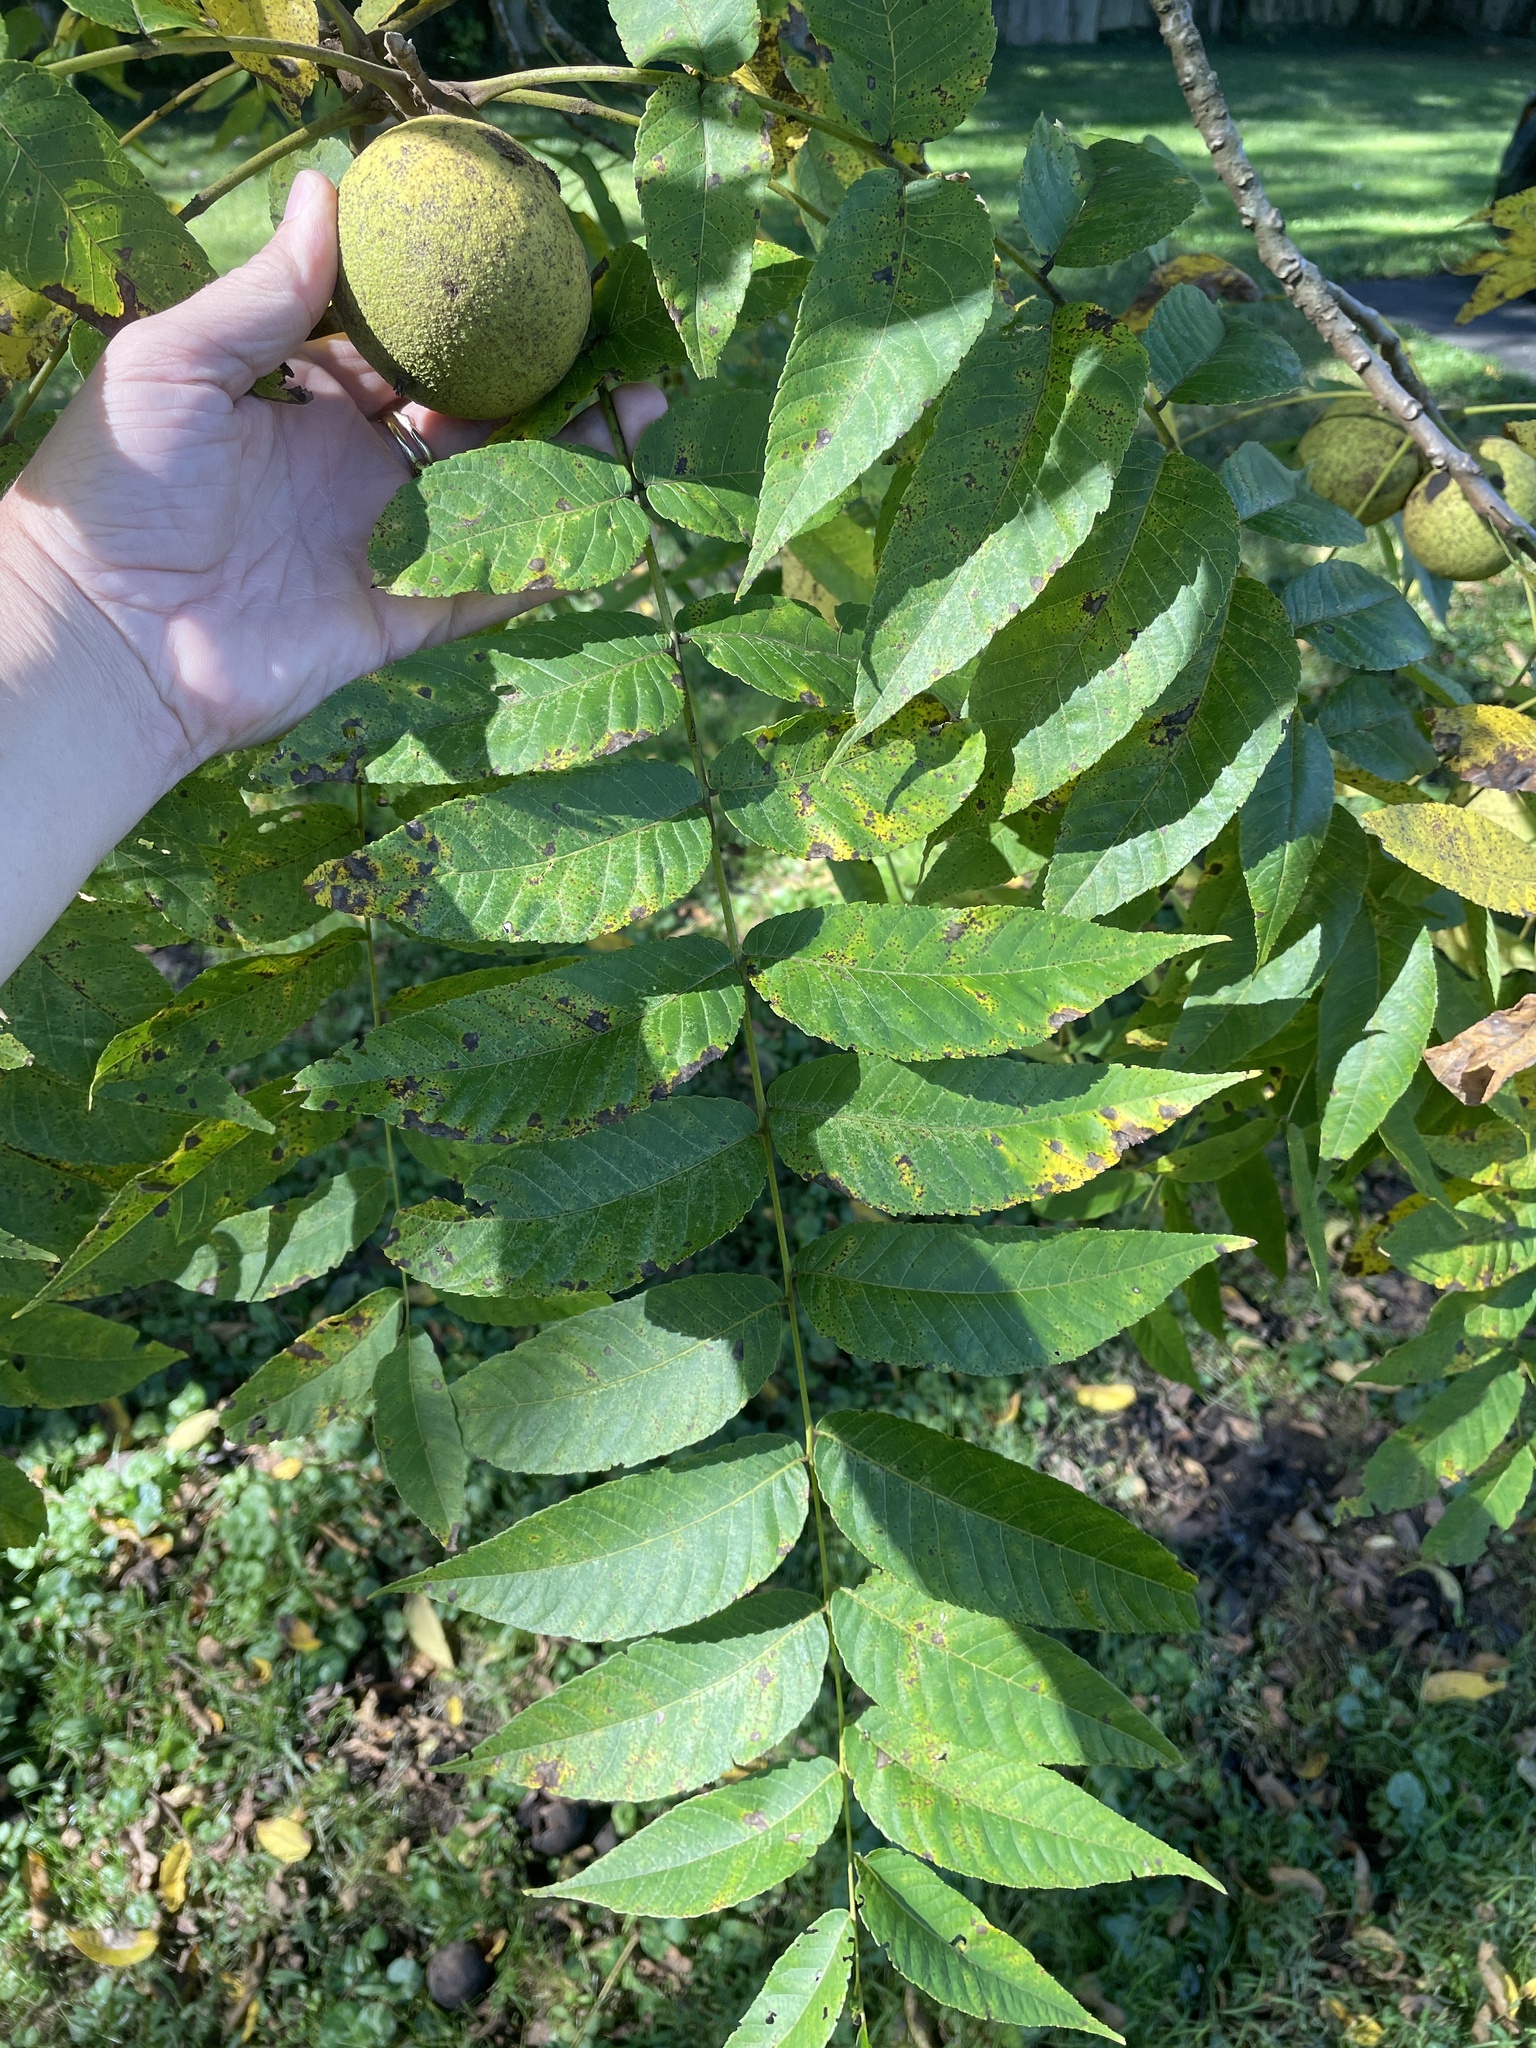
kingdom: Plantae
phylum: Tracheophyta
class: Magnoliopsida
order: Fagales
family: Juglandaceae
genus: Juglans
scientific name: Juglans nigra
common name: Black walnut
